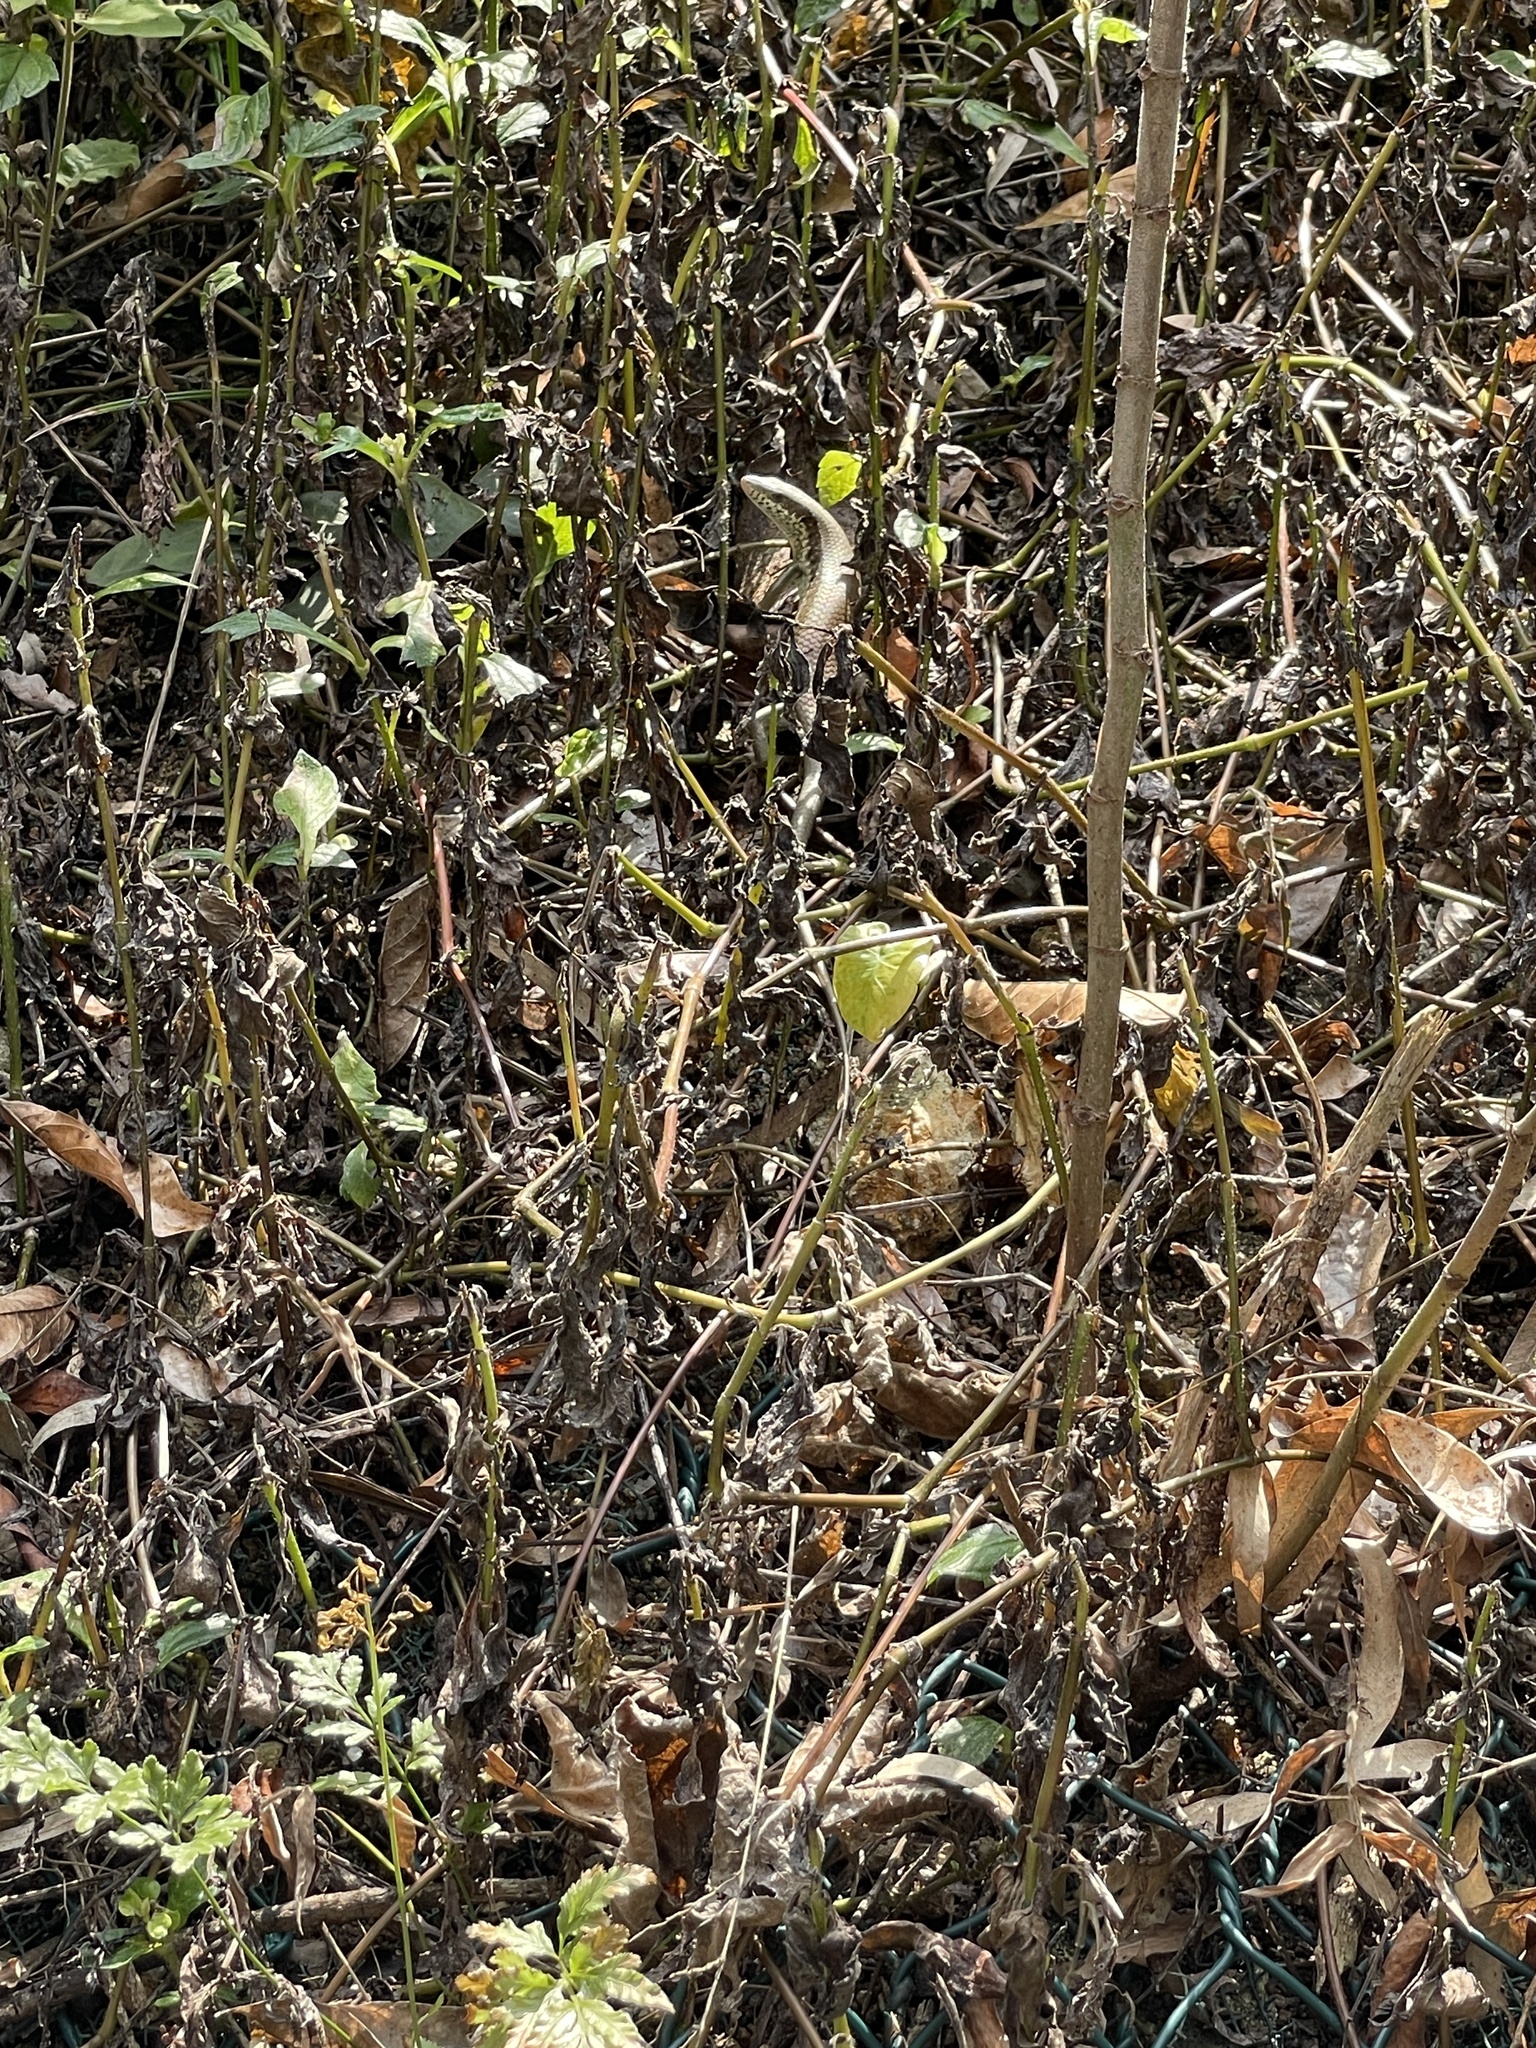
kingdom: Animalia
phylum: Chordata
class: Squamata
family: Scincidae
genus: Eutropis
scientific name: Eutropis longicaudata
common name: Long-tailed sun skink
